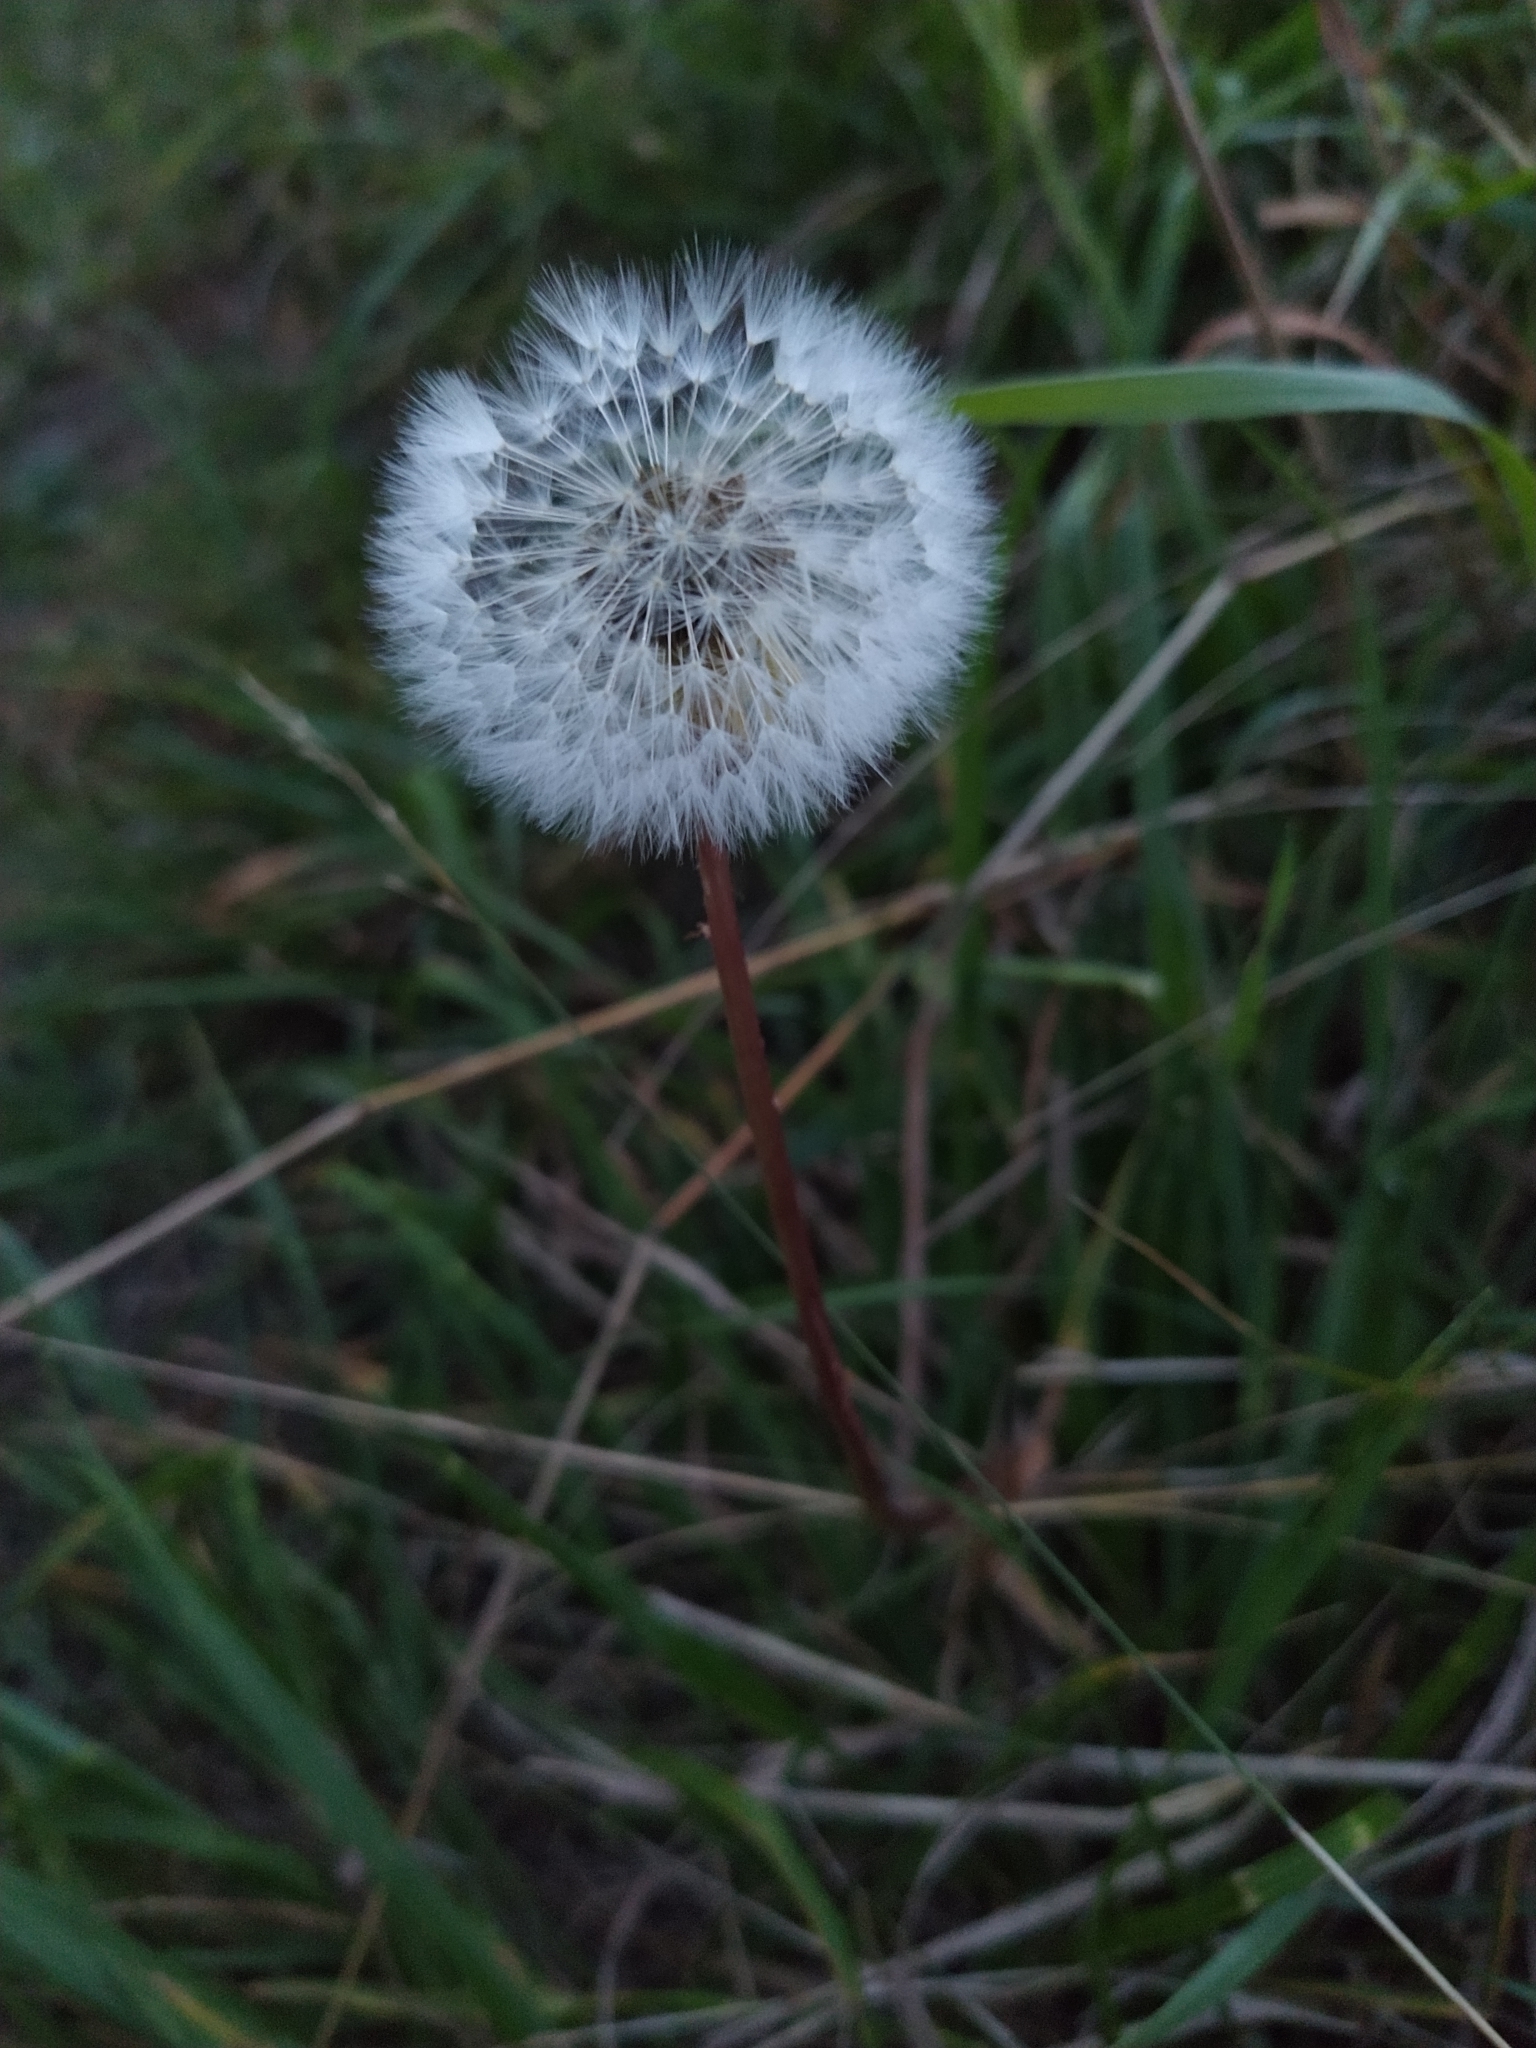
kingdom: Plantae
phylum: Tracheophyta
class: Magnoliopsida
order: Asterales
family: Asteraceae
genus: Taraxacum
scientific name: Taraxacum officinale
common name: Common dandelion
